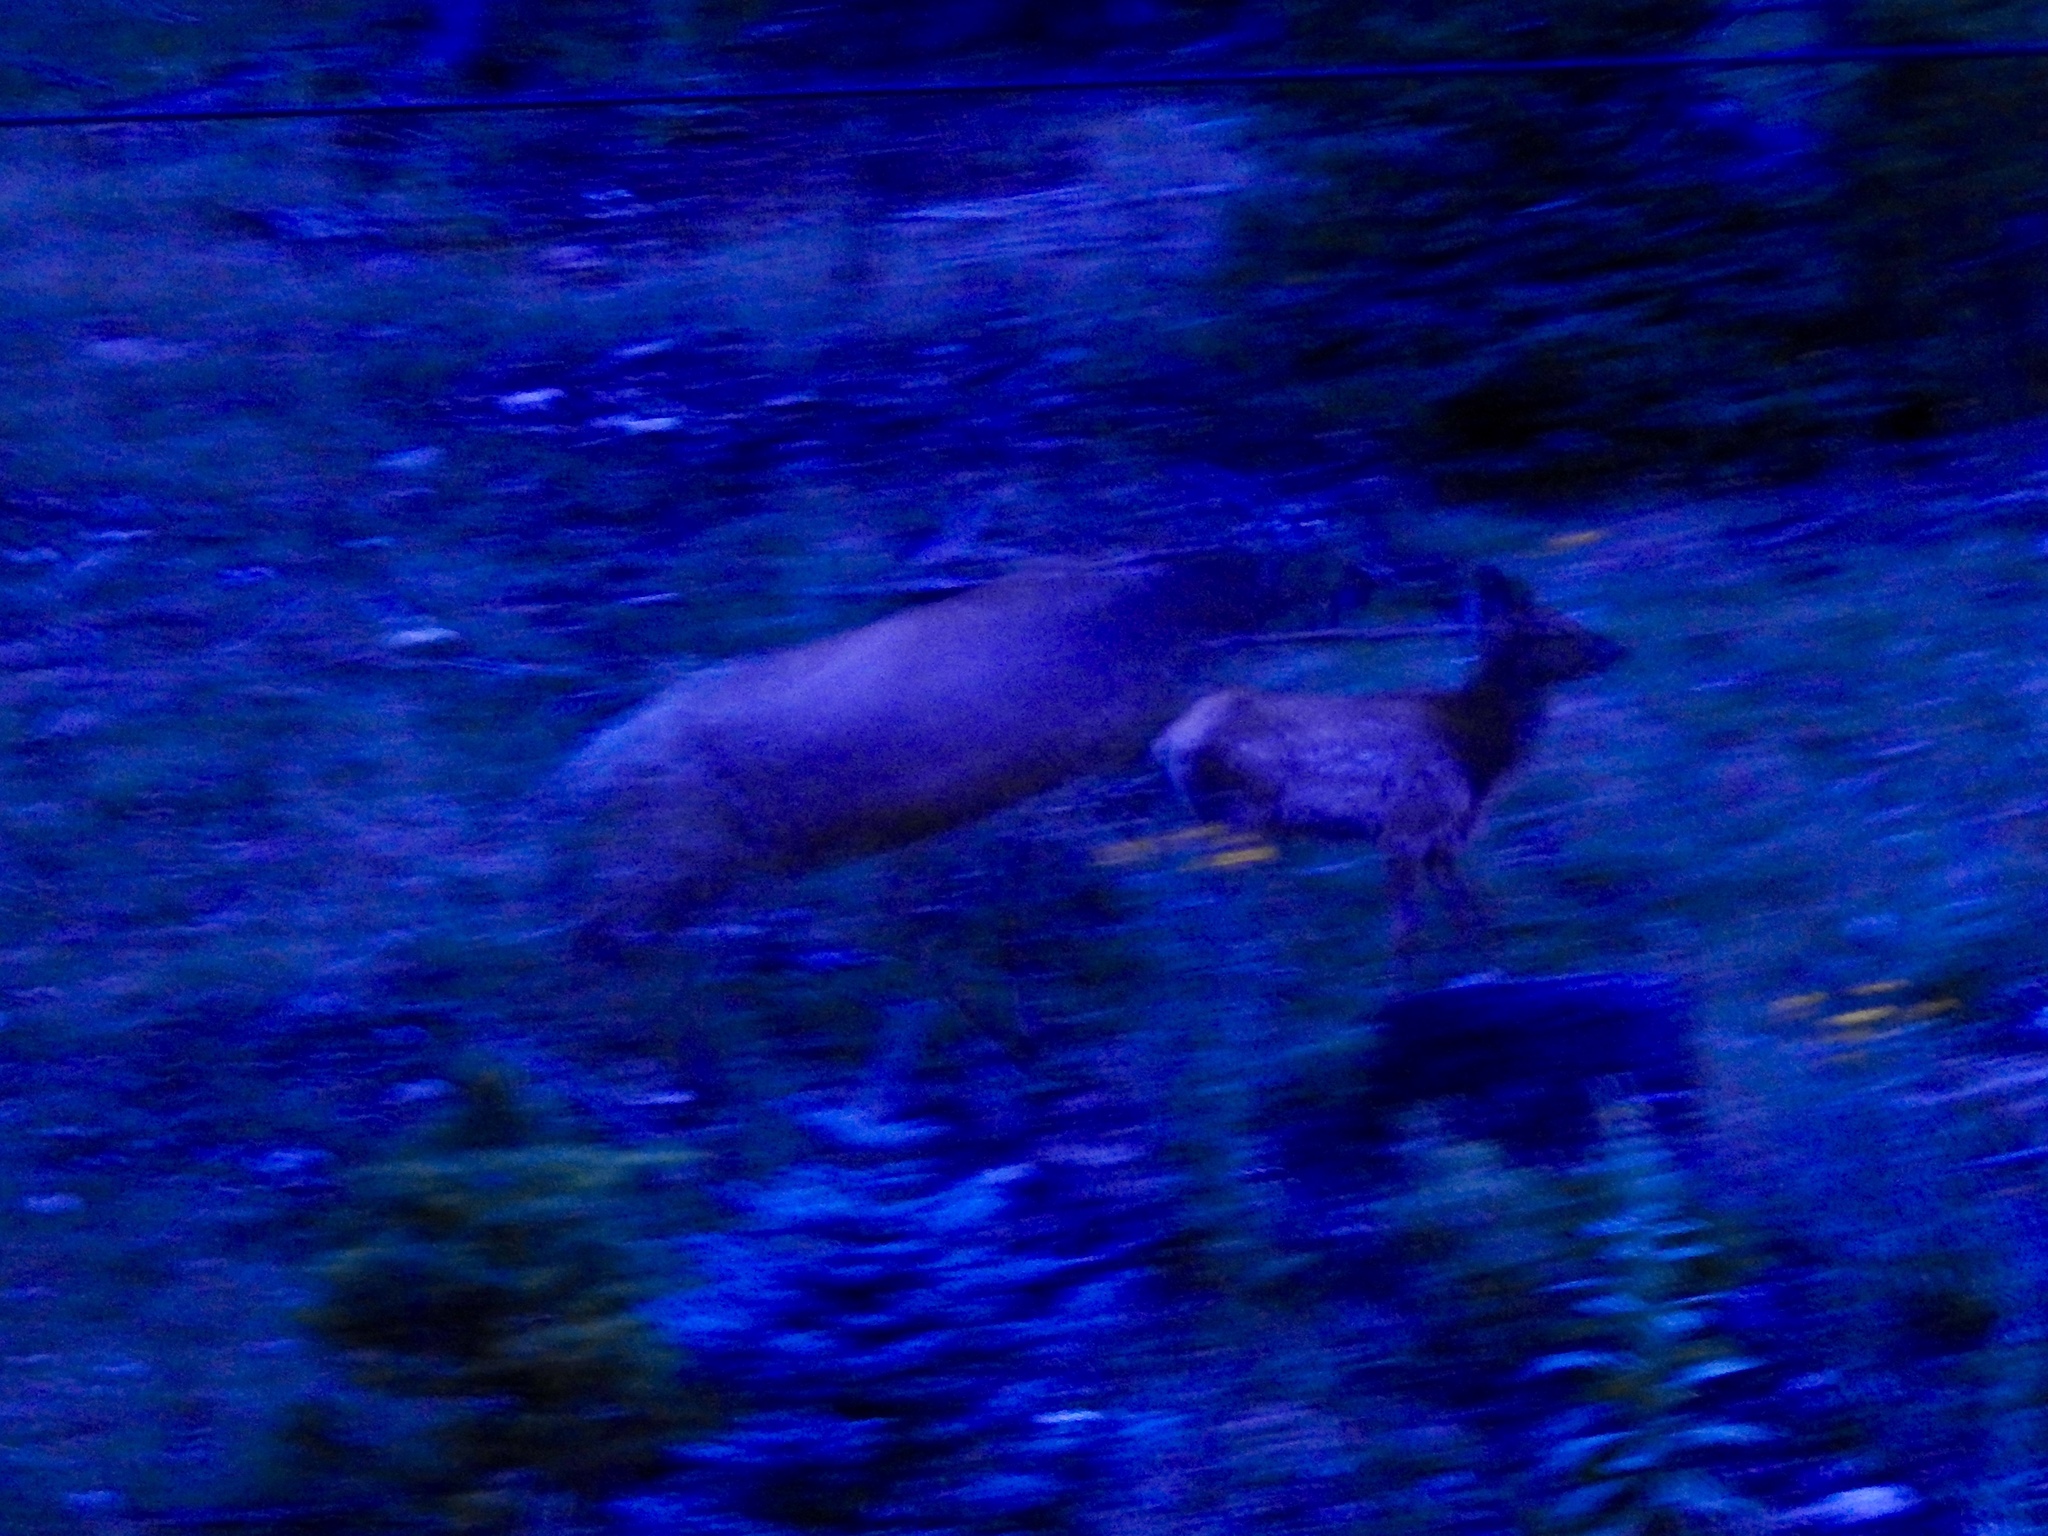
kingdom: Animalia
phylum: Chordata
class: Mammalia
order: Artiodactyla
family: Cervidae
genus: Cervus
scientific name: Cervus elaphus
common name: Red deer
